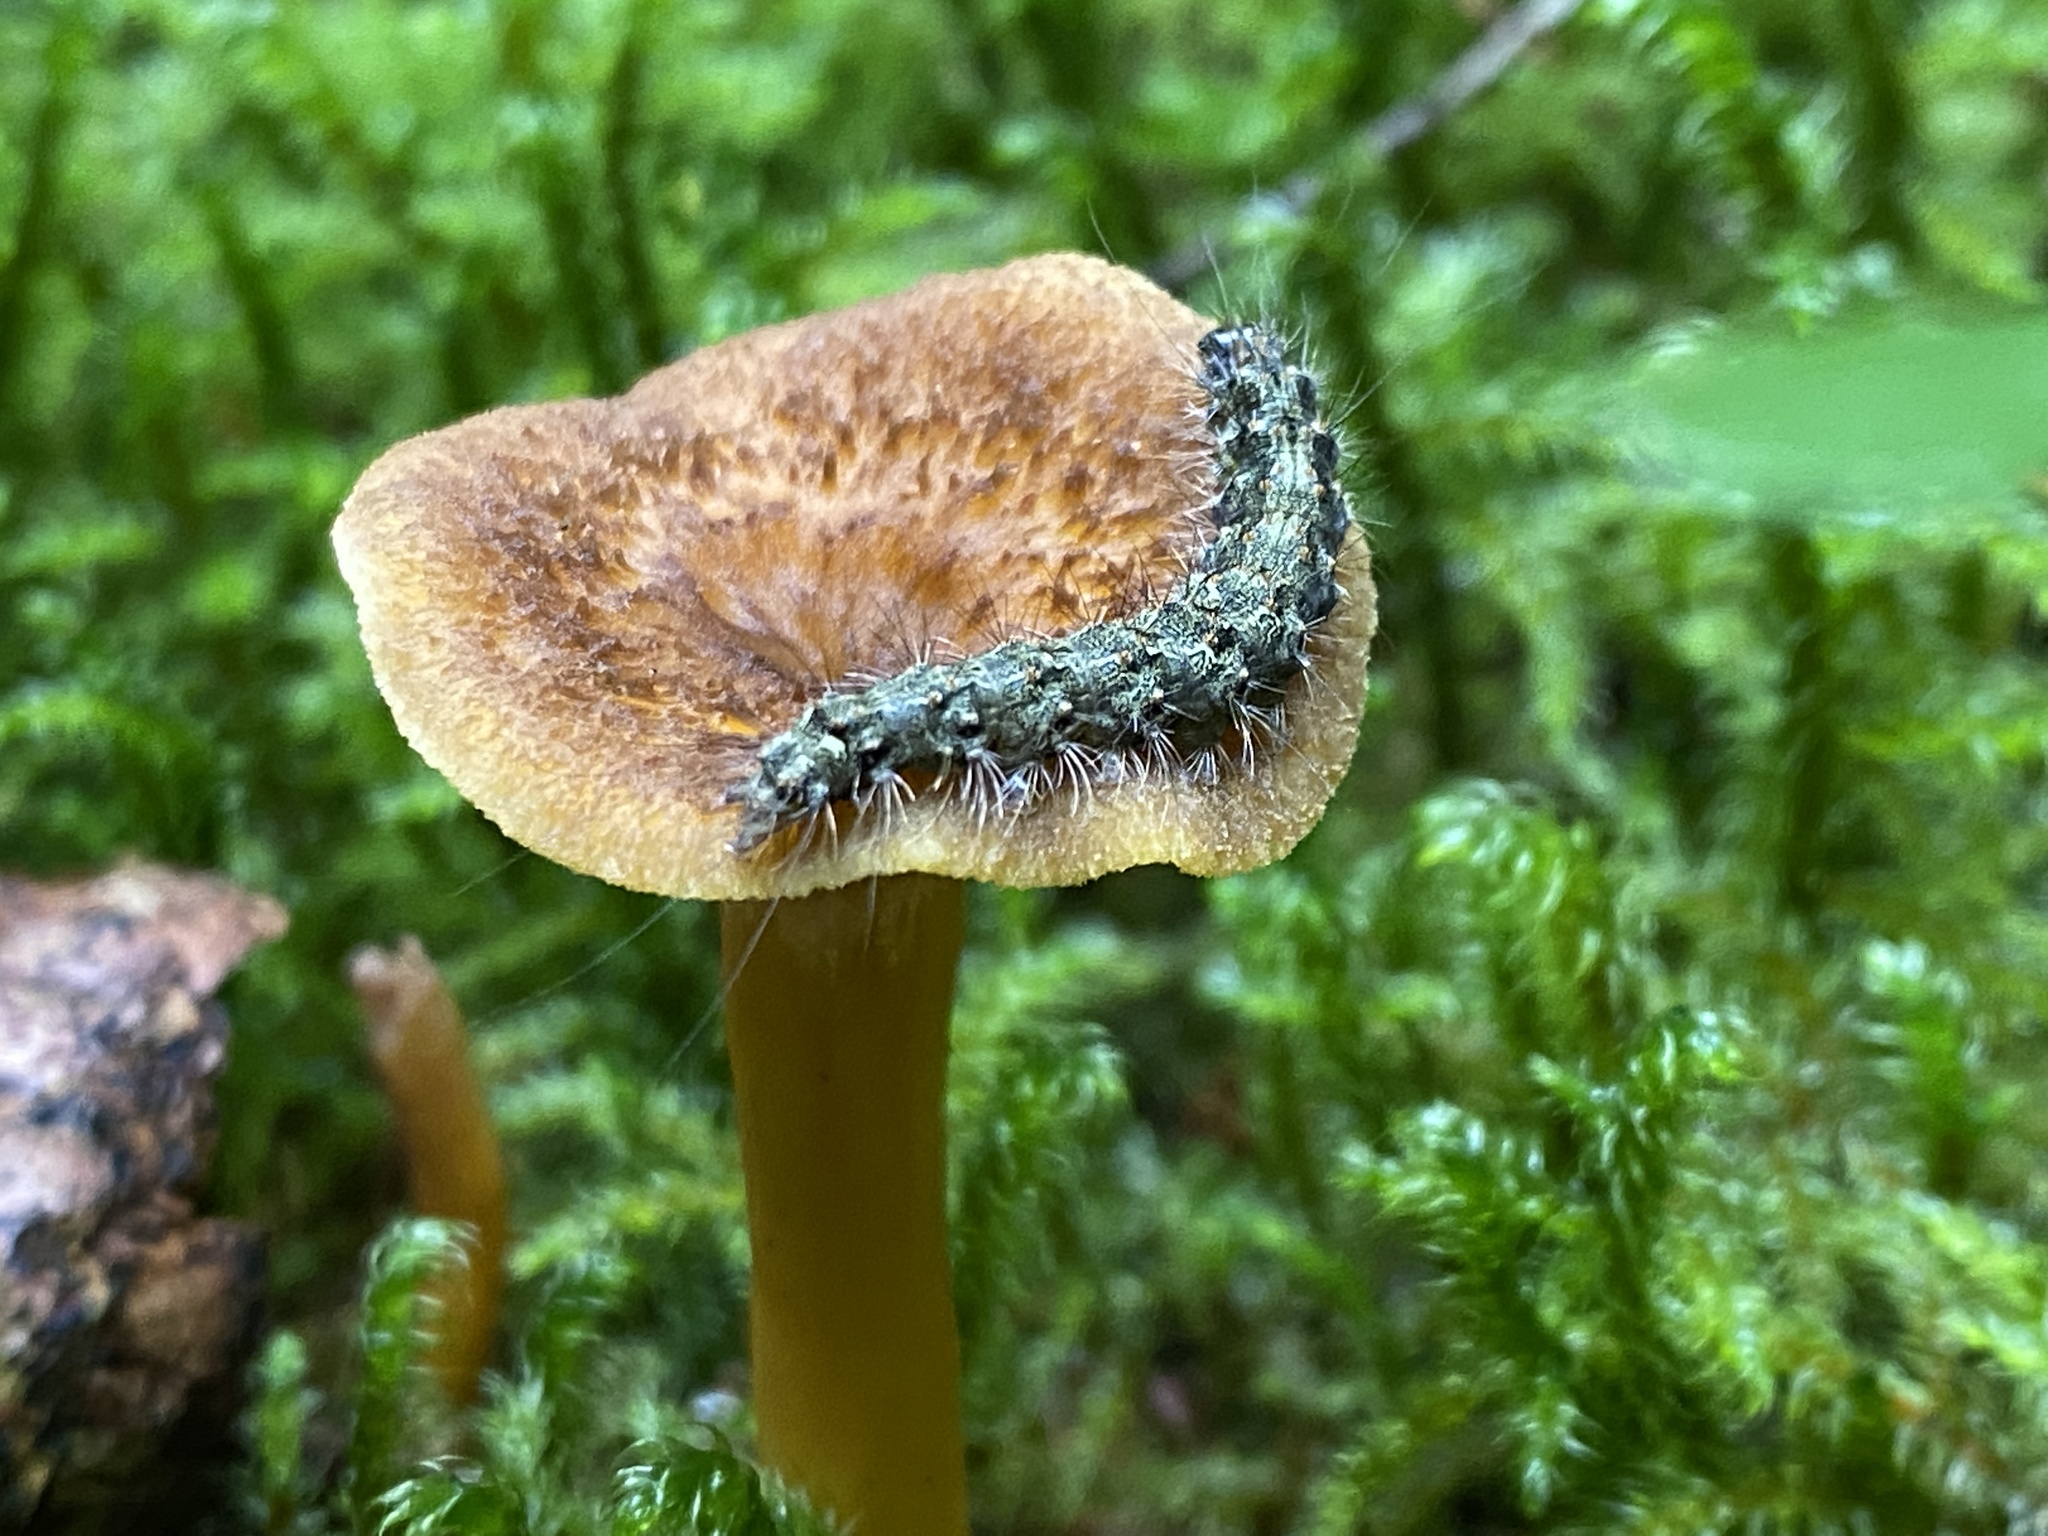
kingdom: Animalia
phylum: Arthropoda
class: Insecta
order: Lepidoptera
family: Erebidae
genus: Atolmis
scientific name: Atolmis rubricollis
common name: Red-necked footman
